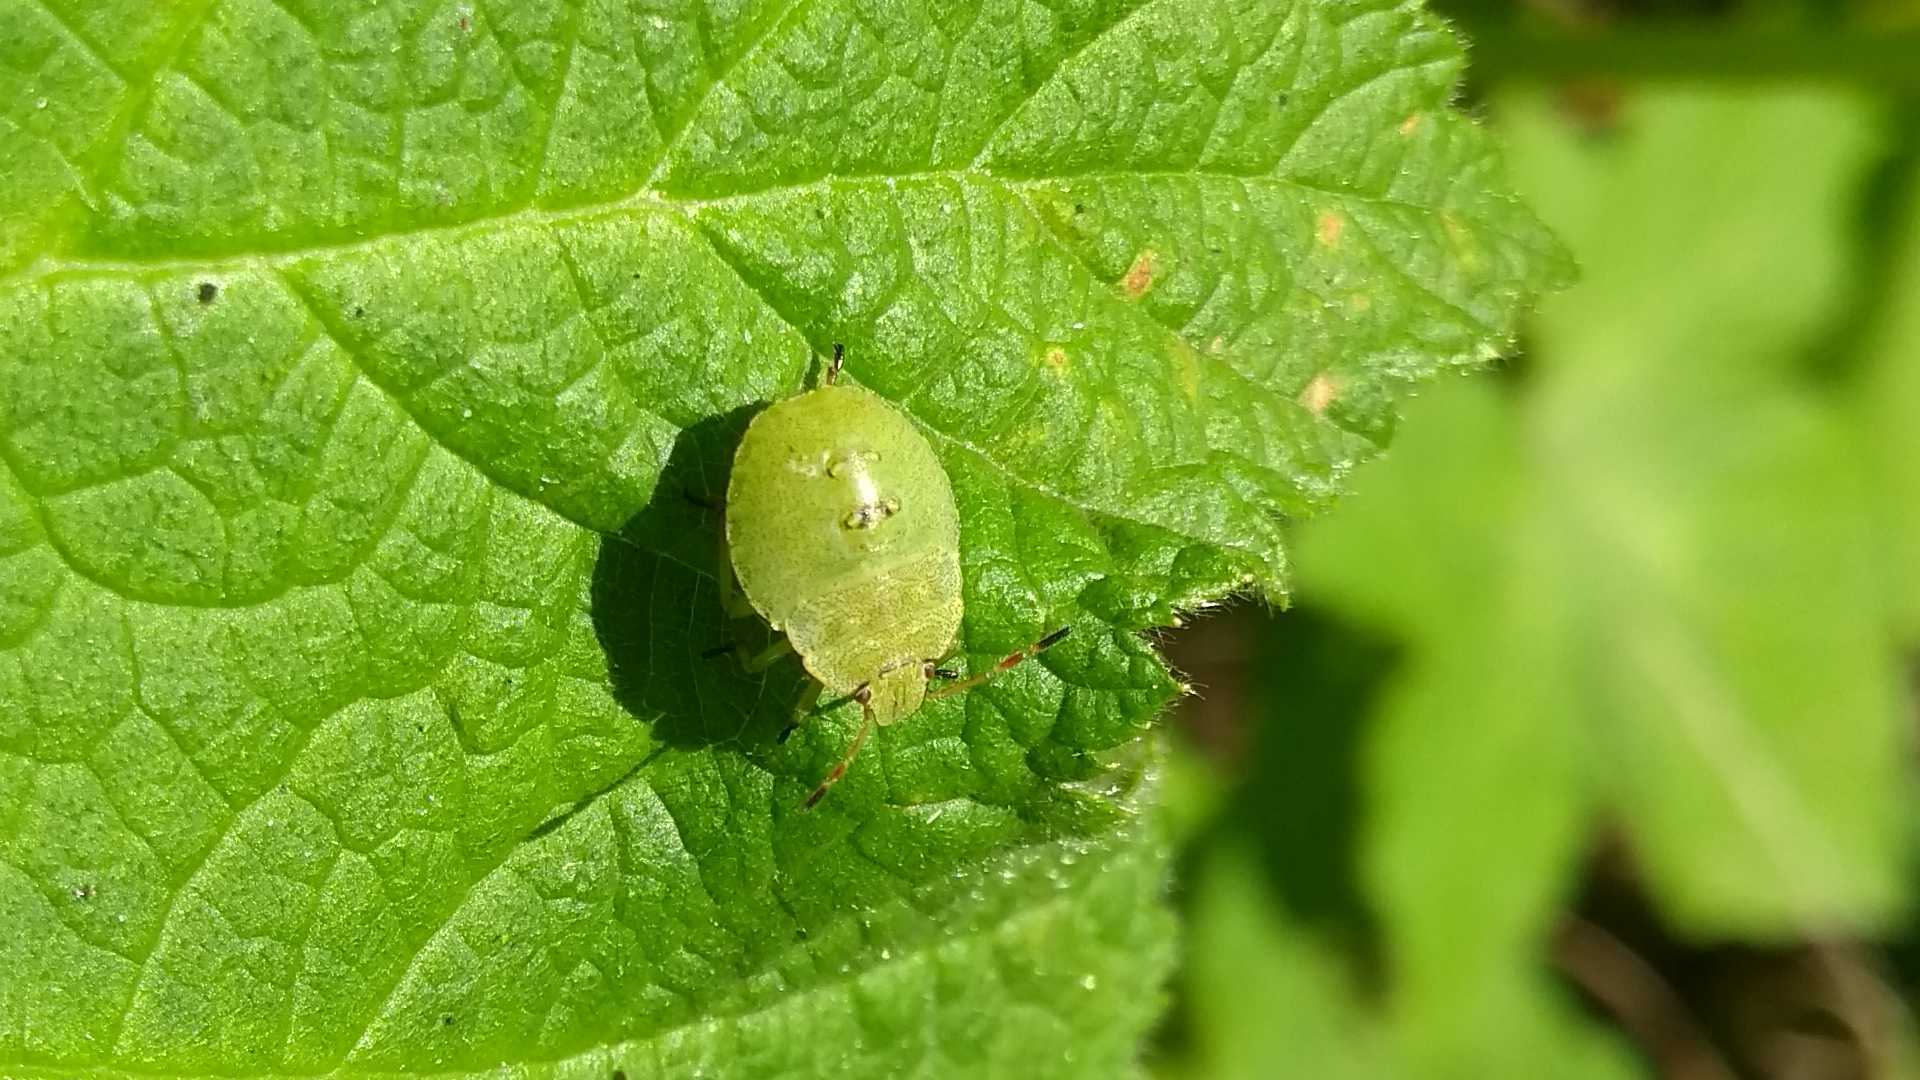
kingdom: Animalia
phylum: Arthropoda
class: Insecta
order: Hemiptera
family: Pentatomidae
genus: Palomena
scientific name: Palomena prasina
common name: Green shieldbug
